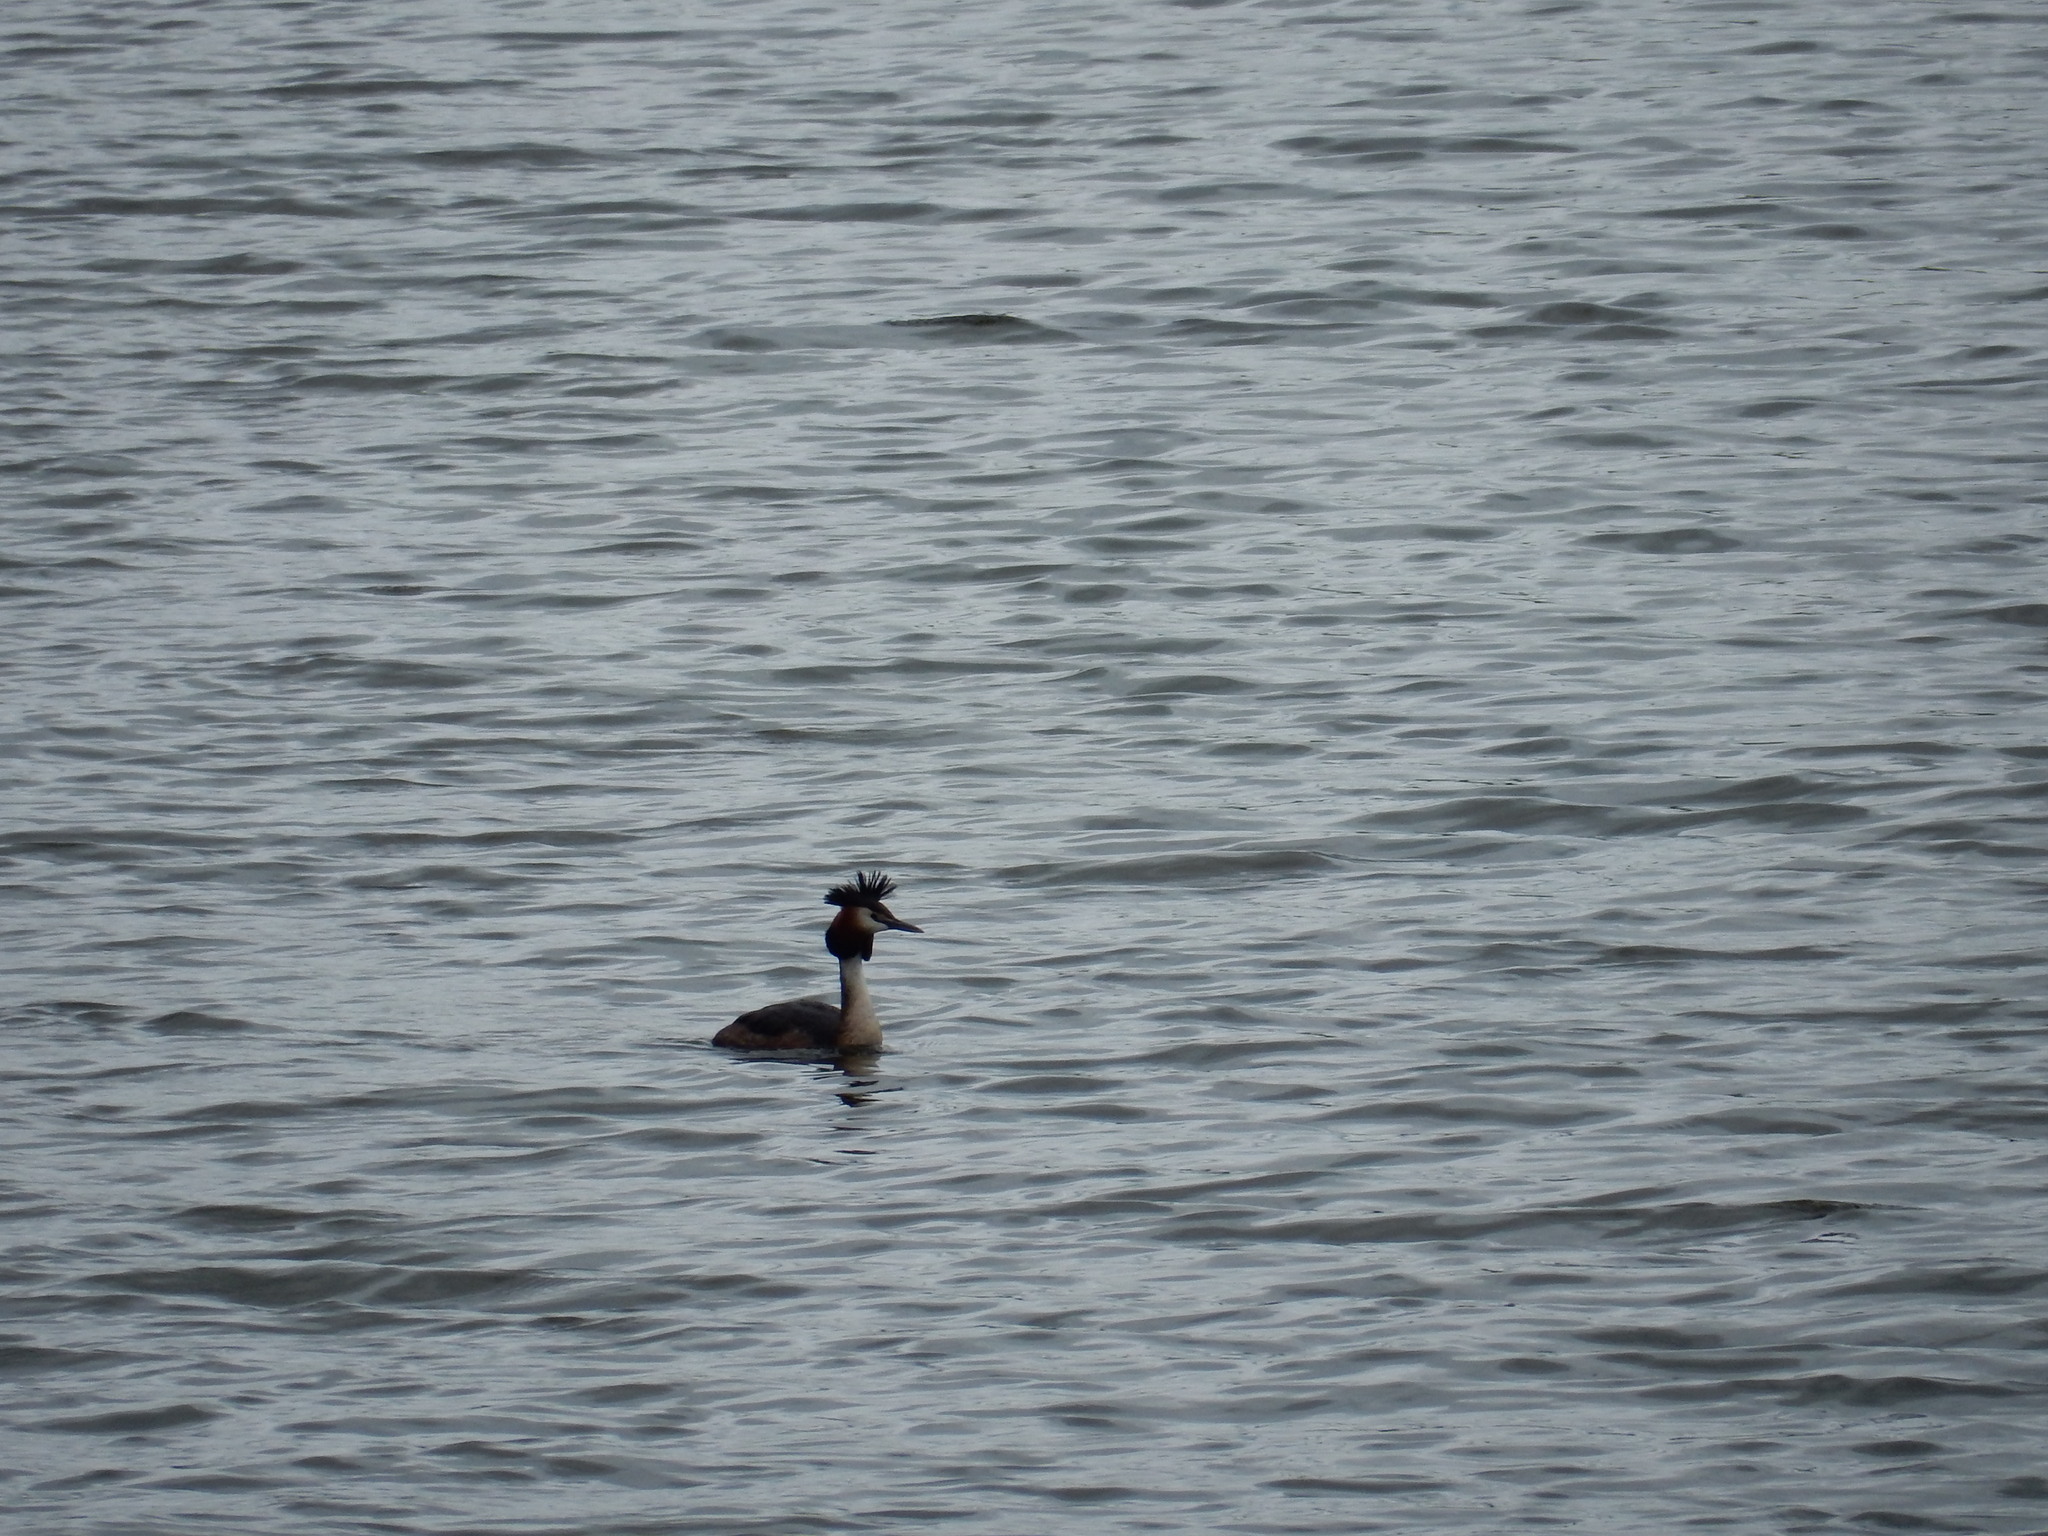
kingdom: Animalia
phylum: Chordata
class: Aves
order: Podicipediformes
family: Podicipedidae
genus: Podiceps
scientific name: Podiceps cristatus
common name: Great crested grebe
